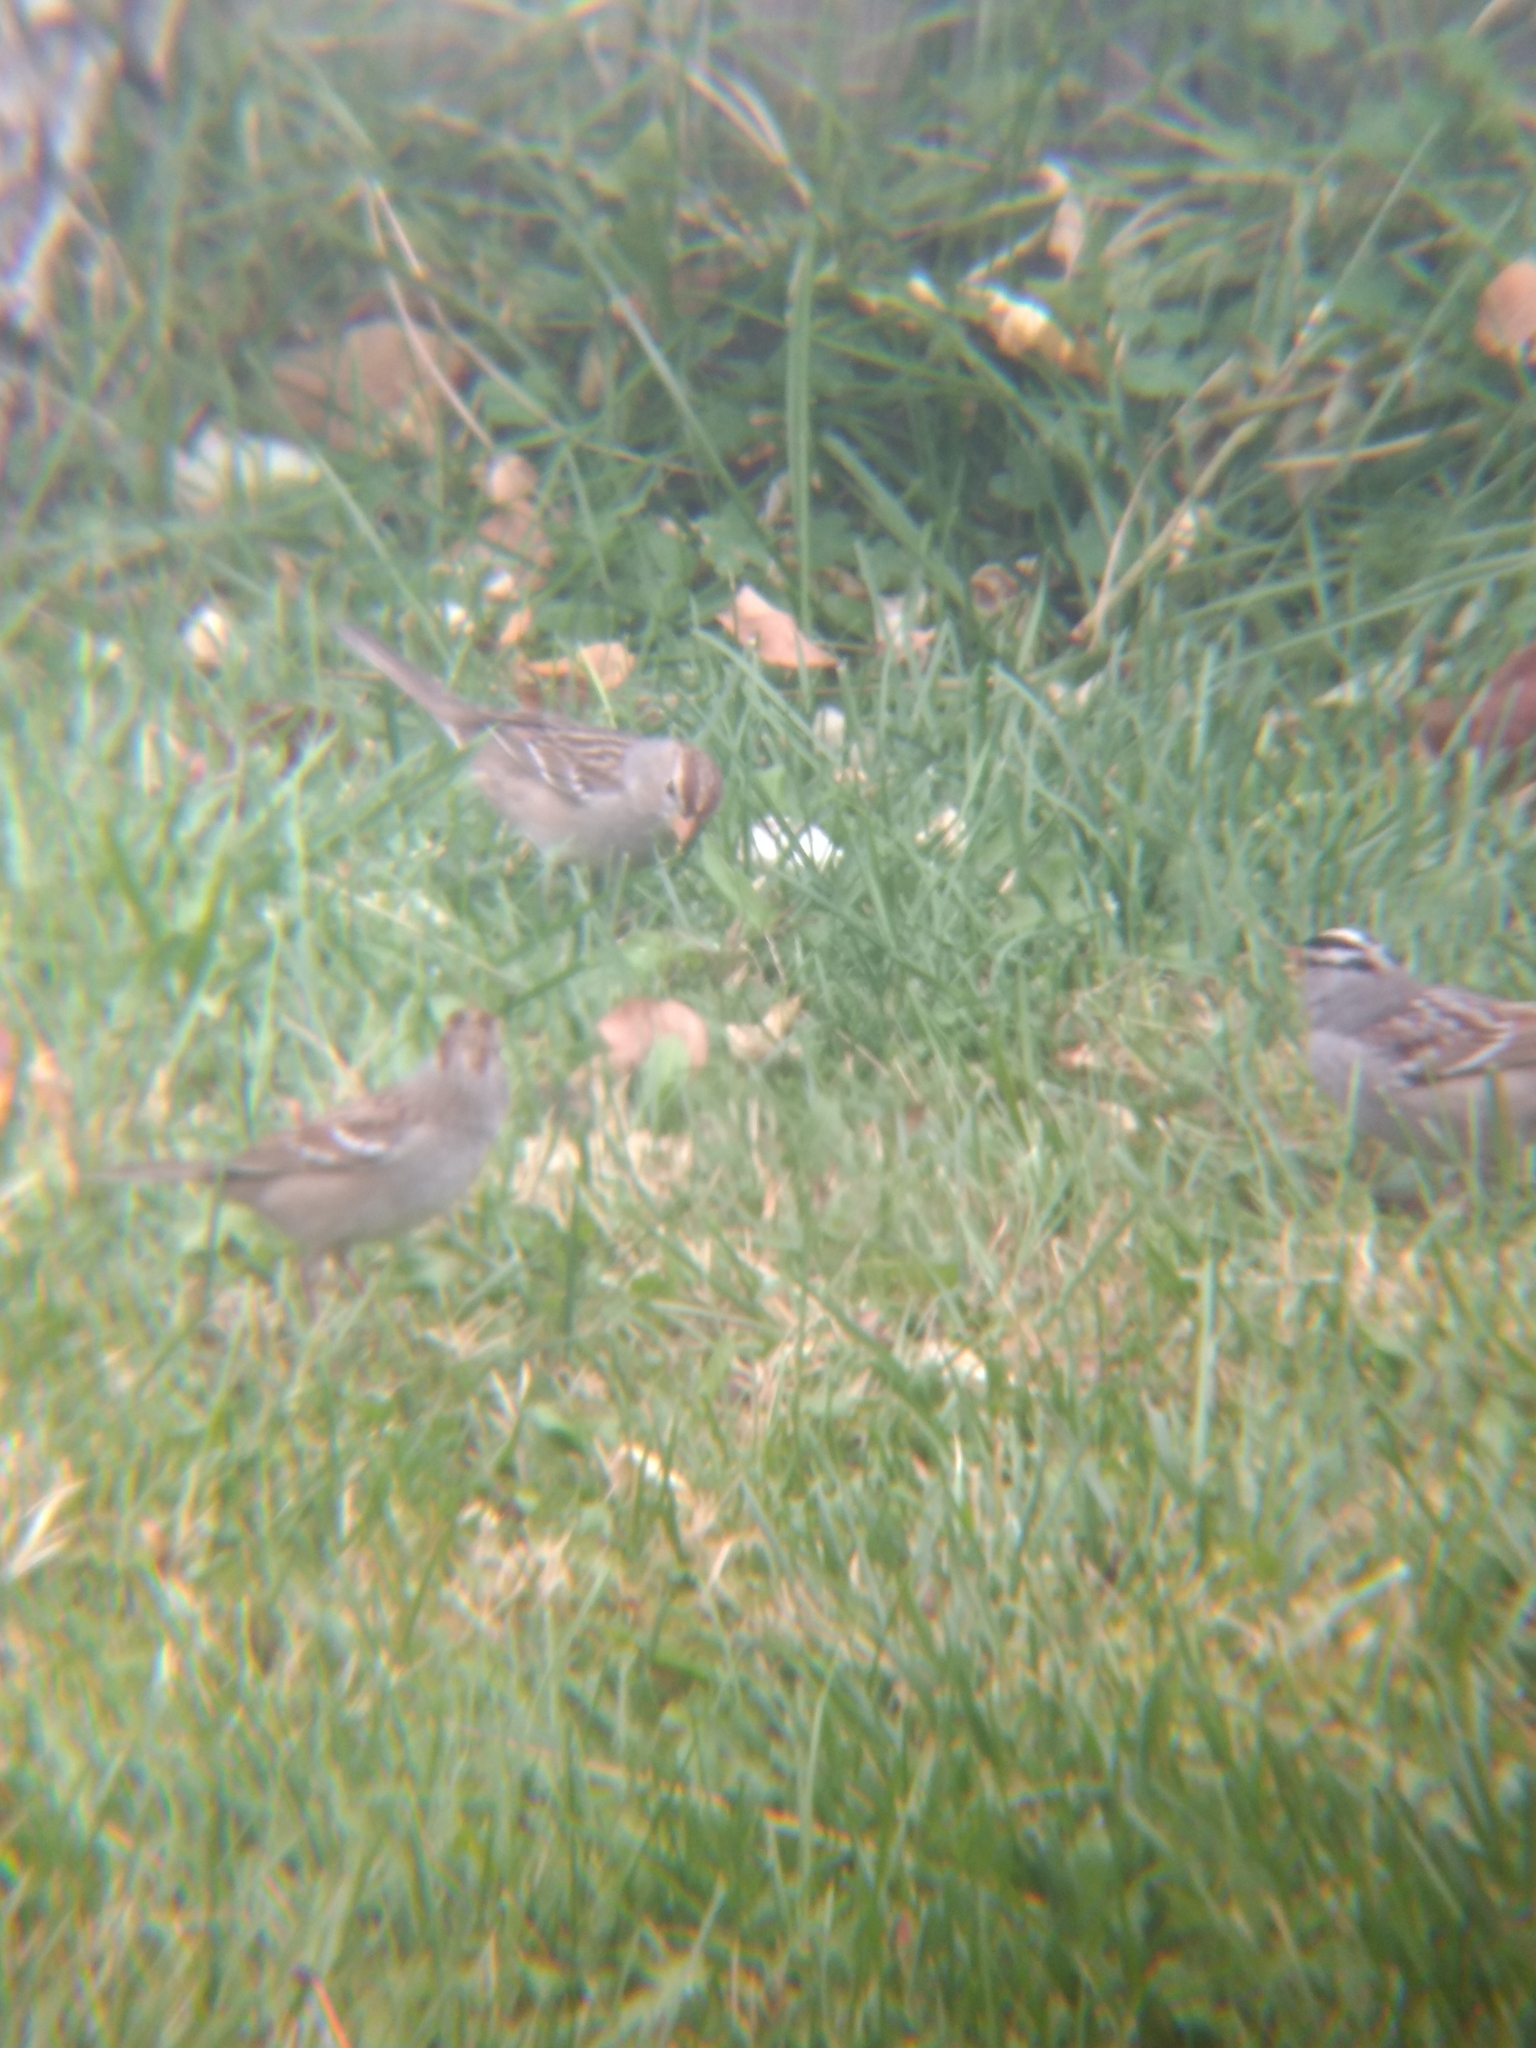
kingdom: Animalia
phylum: Chordata
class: Aves
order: Passeriformes
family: Passerellidae
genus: Zonotrichia
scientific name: Zonotrichia leucophrys
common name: White-crowned sparrow
